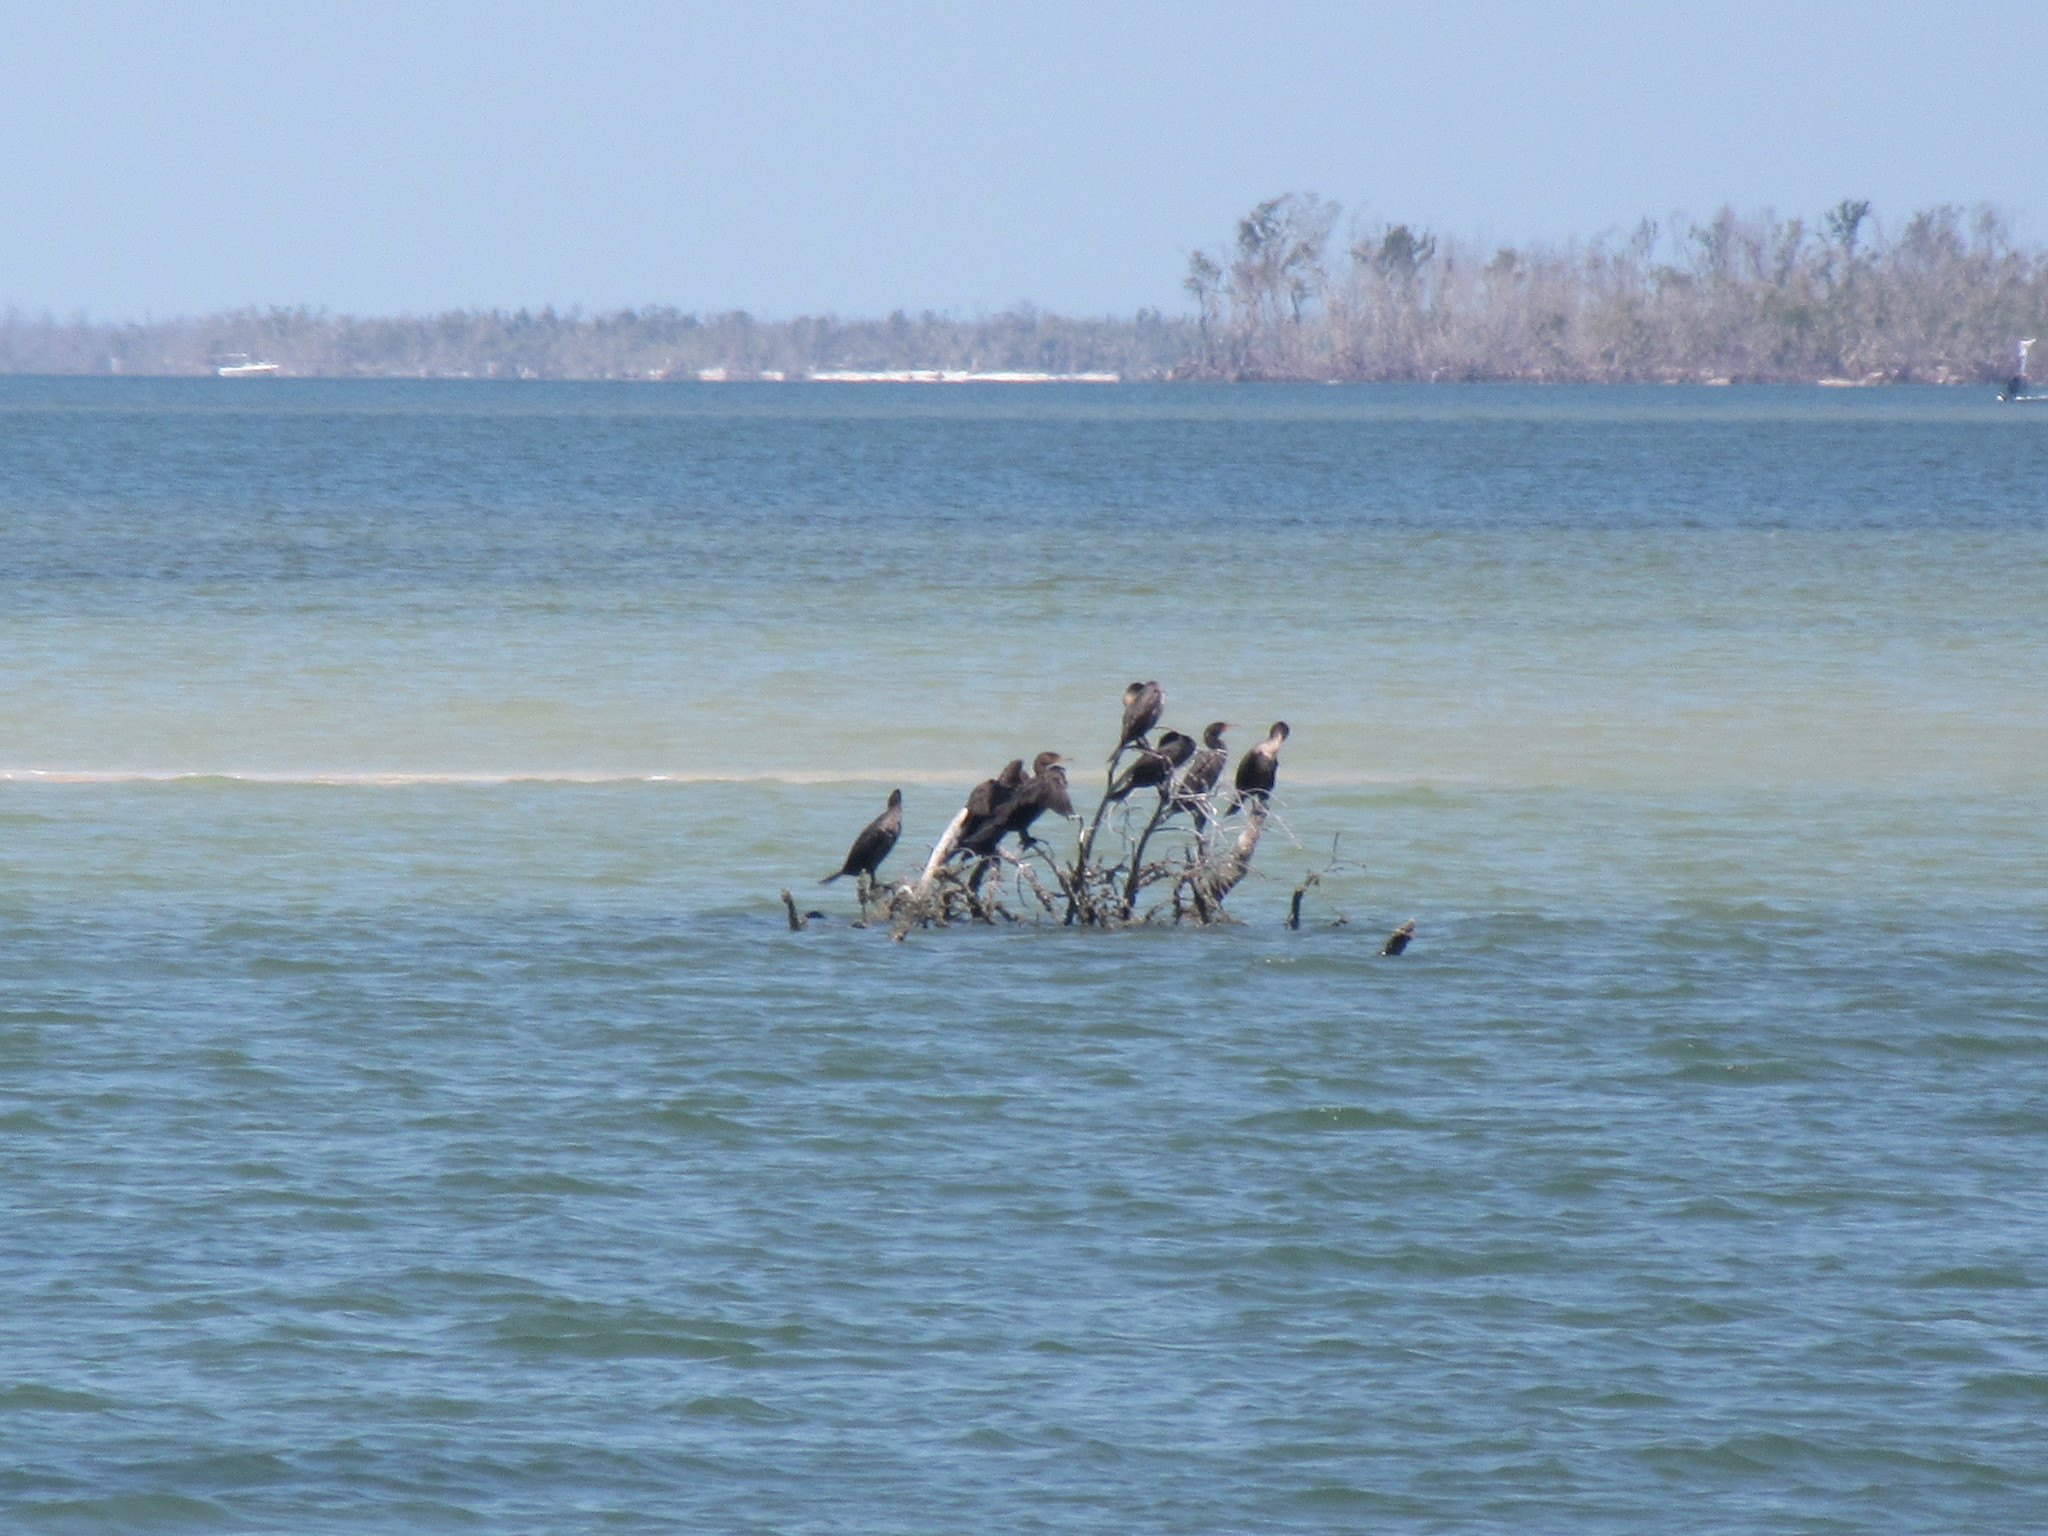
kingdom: Animalia
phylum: Chordata
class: Aves
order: Suliformes
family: Phalacrocoracidae
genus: Phalacrocorax
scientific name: Phalacrocorax auritus
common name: Double-crested cormorant
